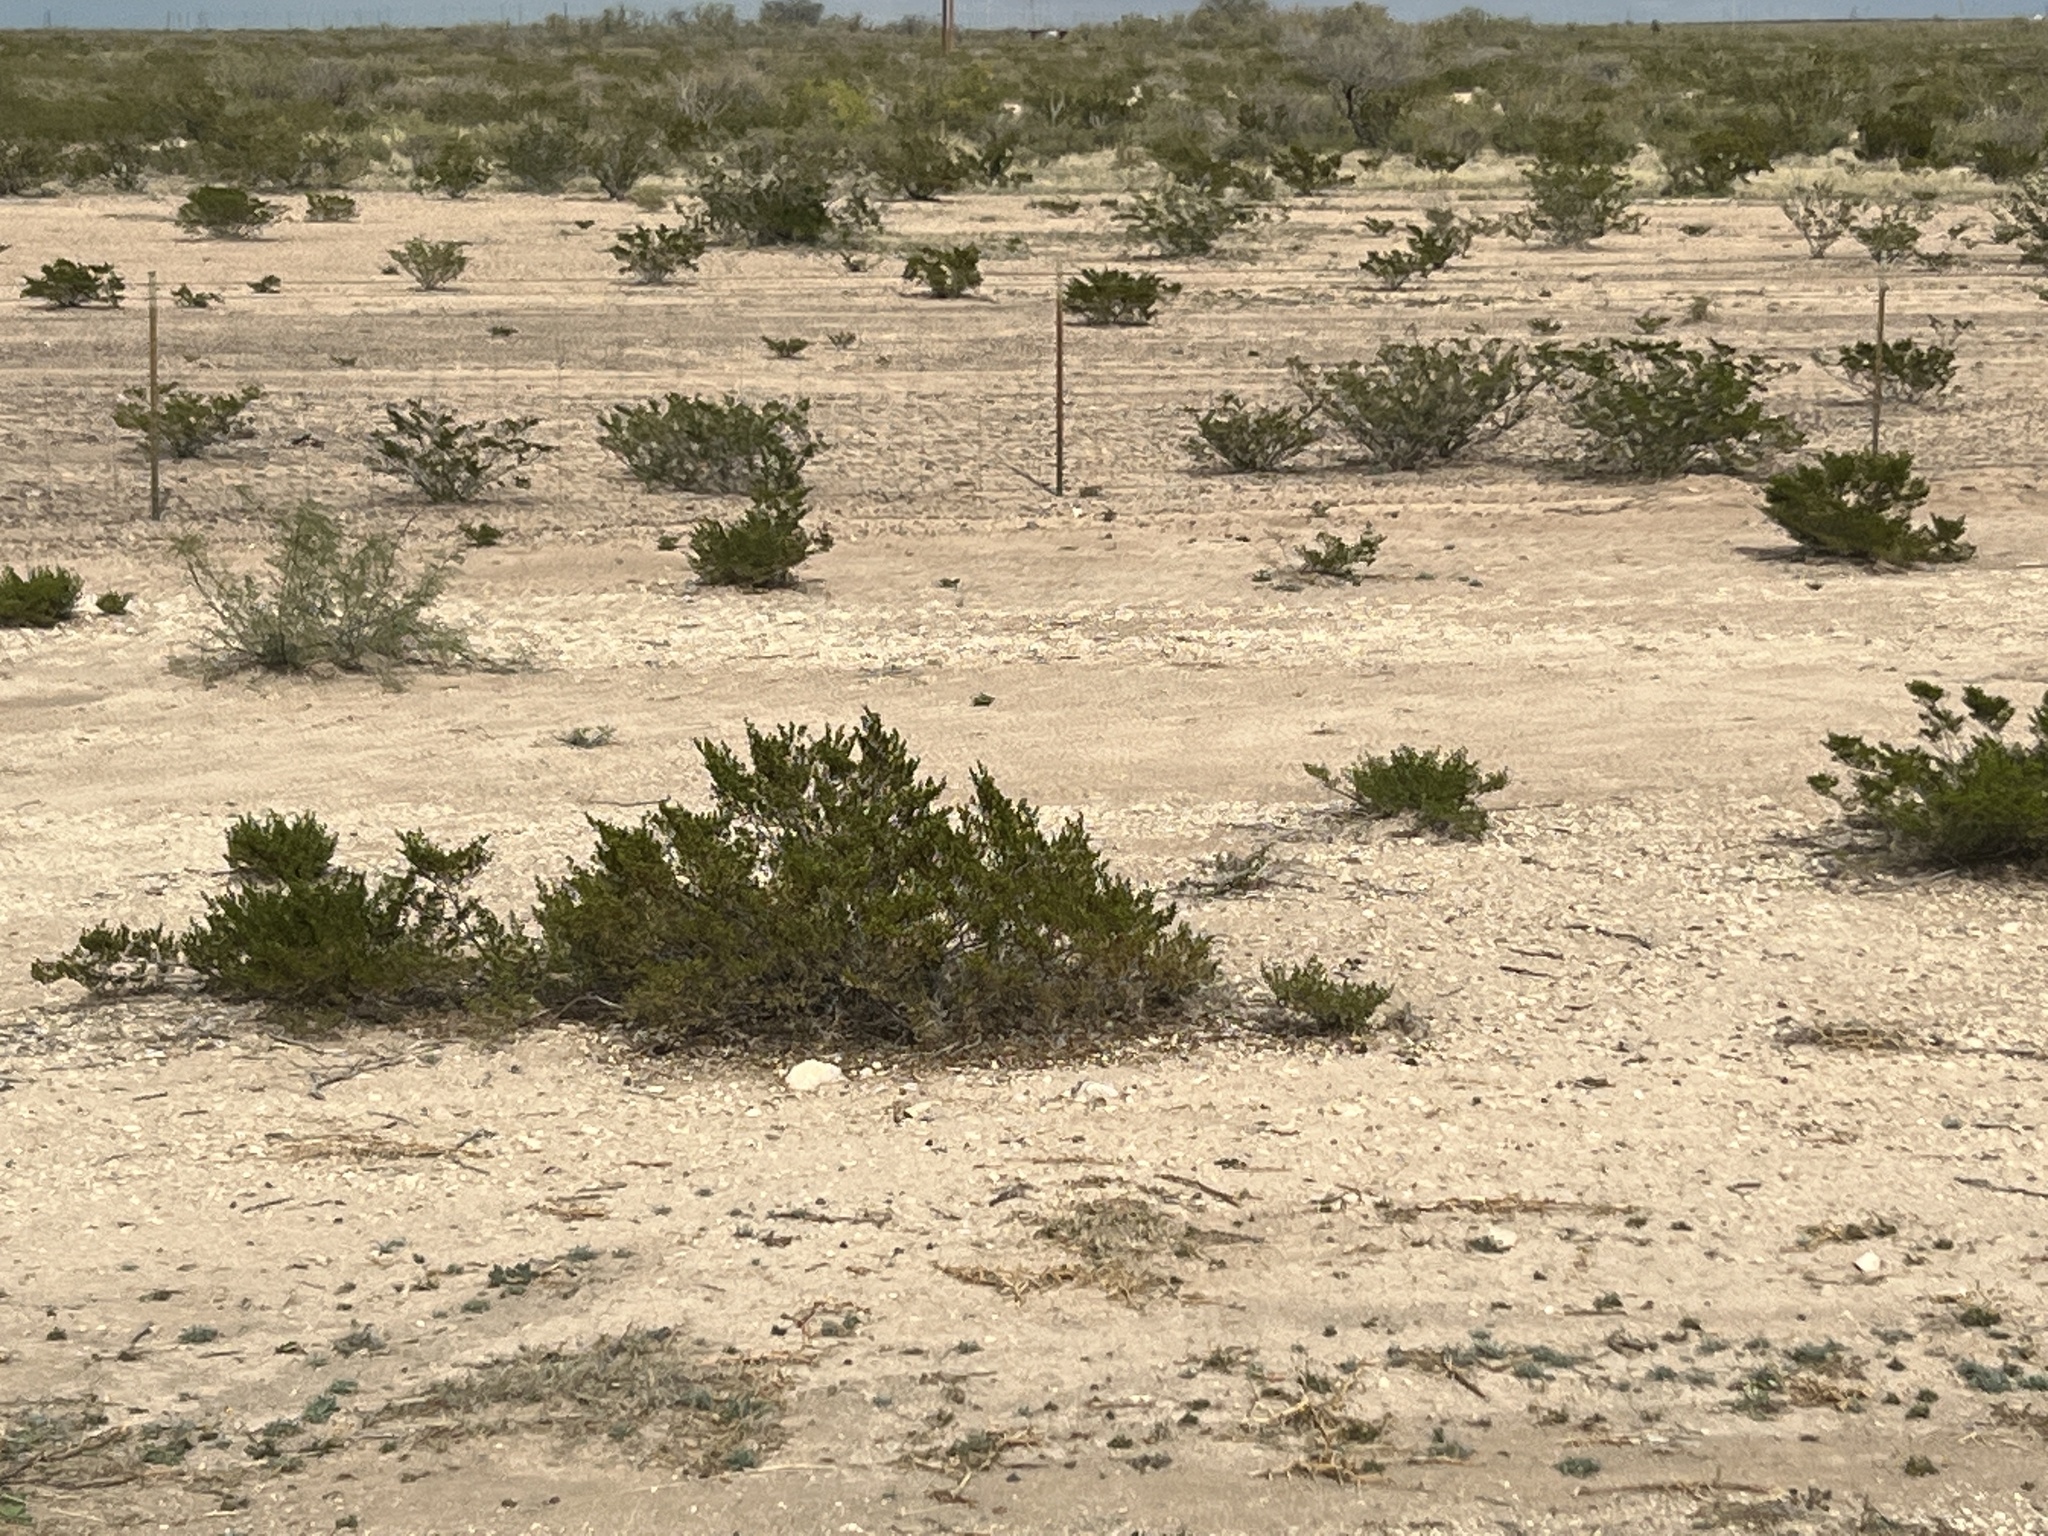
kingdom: Plantae
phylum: Tracheophyta
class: Magnoliopsida
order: Zygophyllales
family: Zygophyllaceae
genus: Larrea
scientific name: Larrea tridentata
